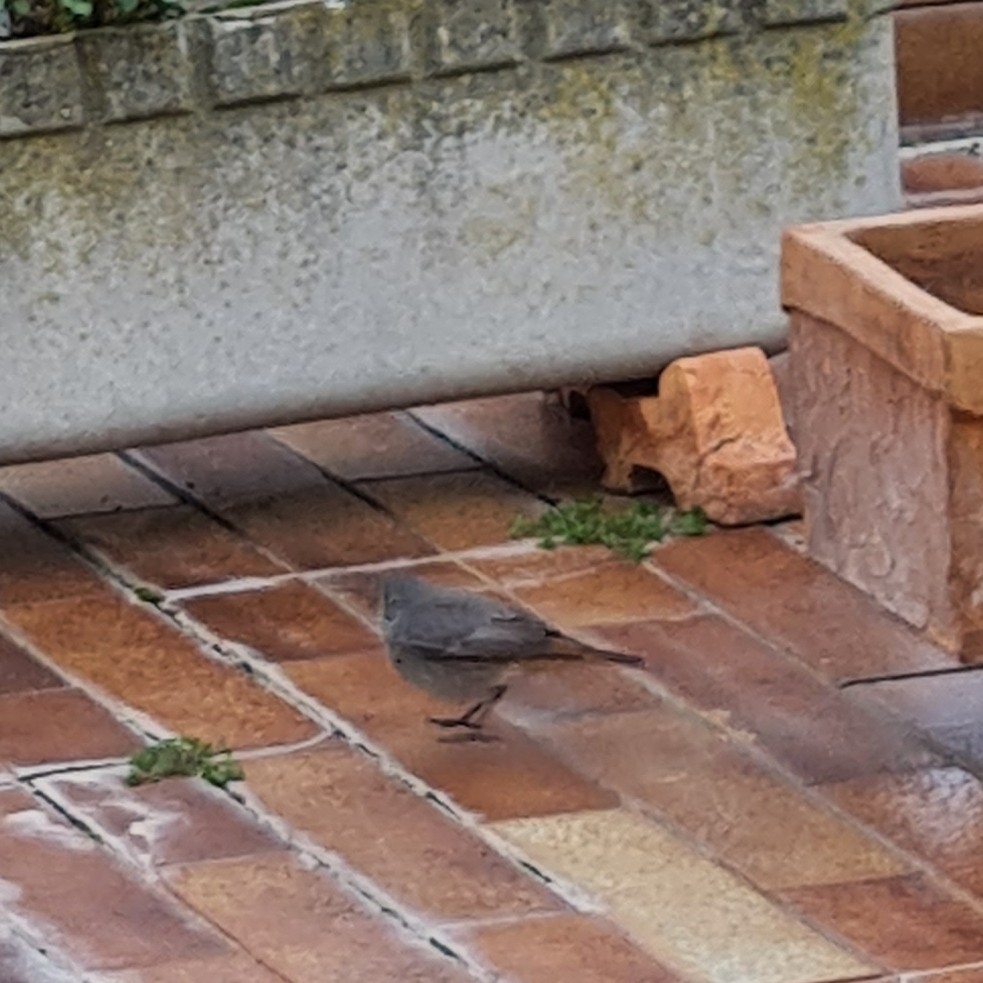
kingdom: Animalia
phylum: Chordata
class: Aves
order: Passeriformes
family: Muscicapidae
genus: Phoenicurus
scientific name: Phoenicurus ochruros
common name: Black redstart
